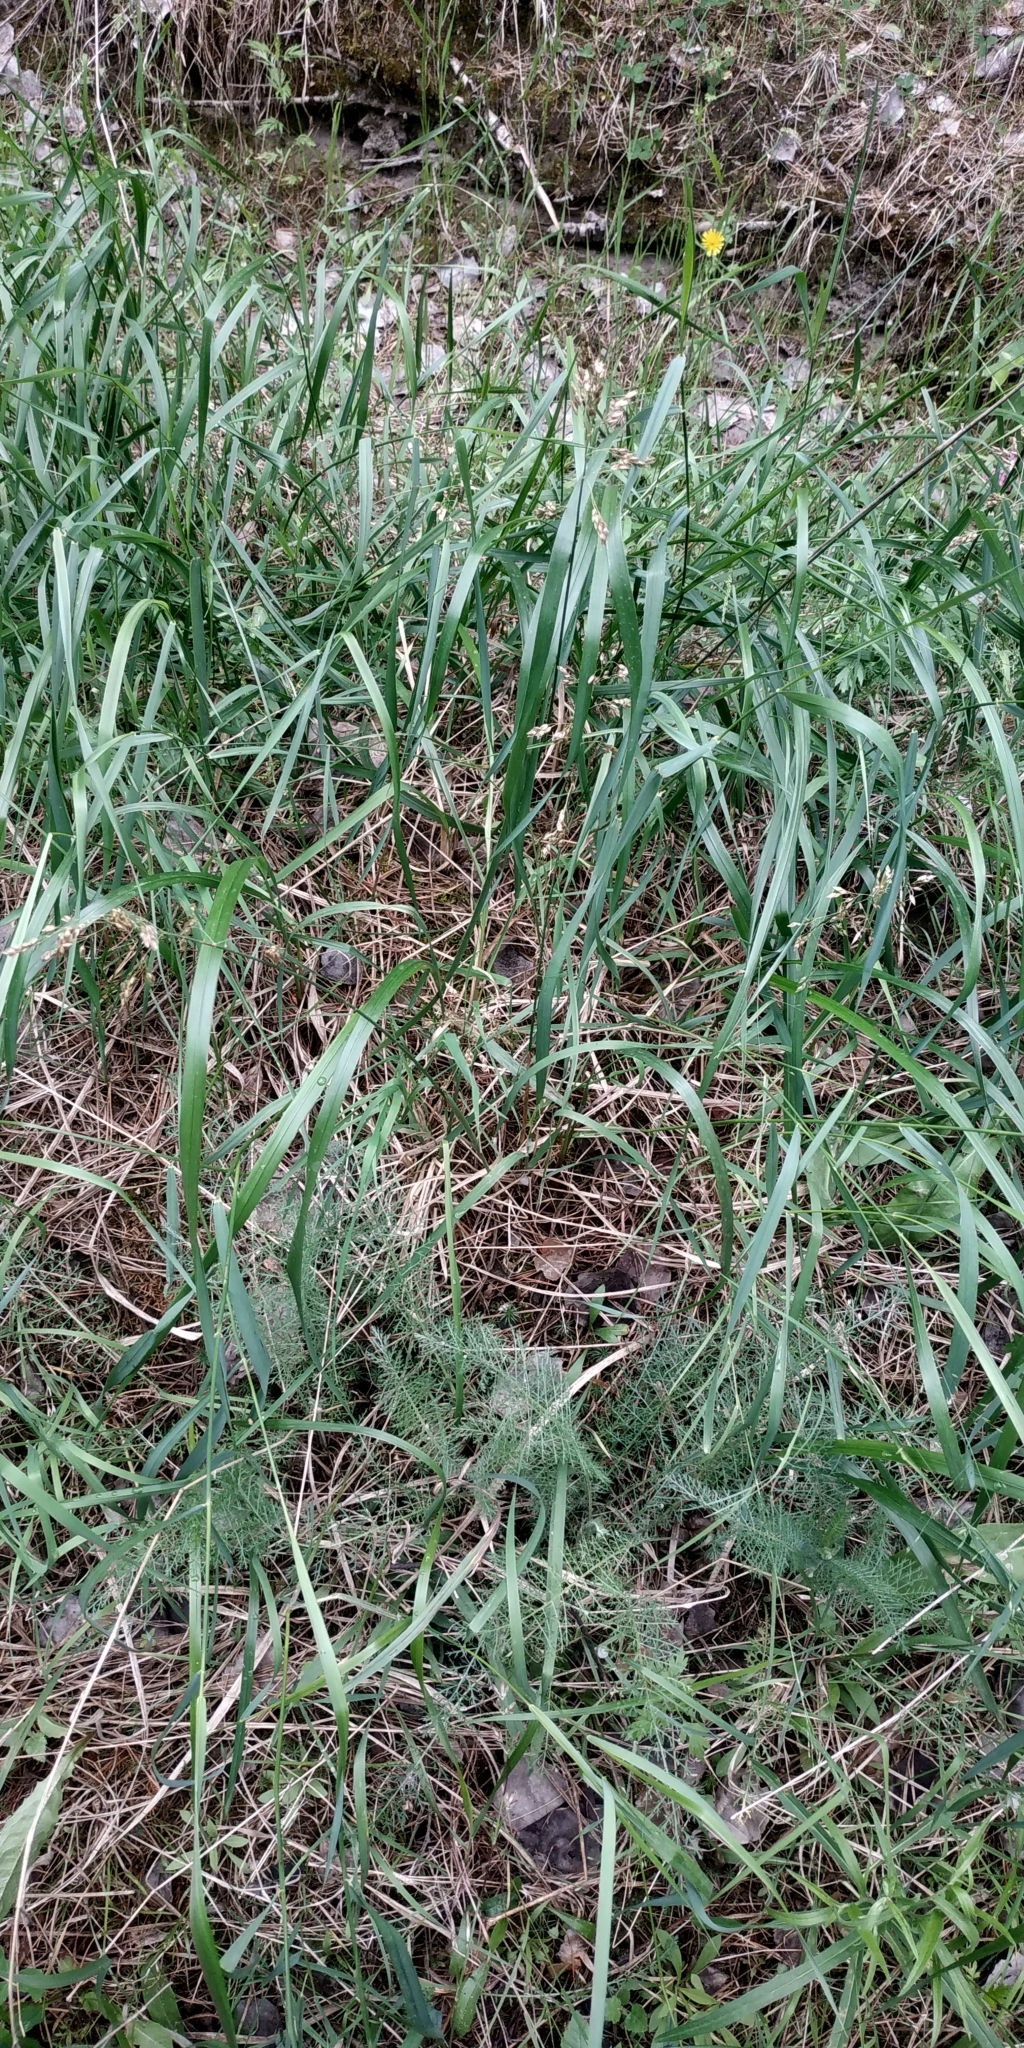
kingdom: Plantae
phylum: Tracheophyta
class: Liliopsida
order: Poales
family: Poaceae
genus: Anthoxanthum
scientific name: Anthoxanthum nitens
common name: Holy grass
